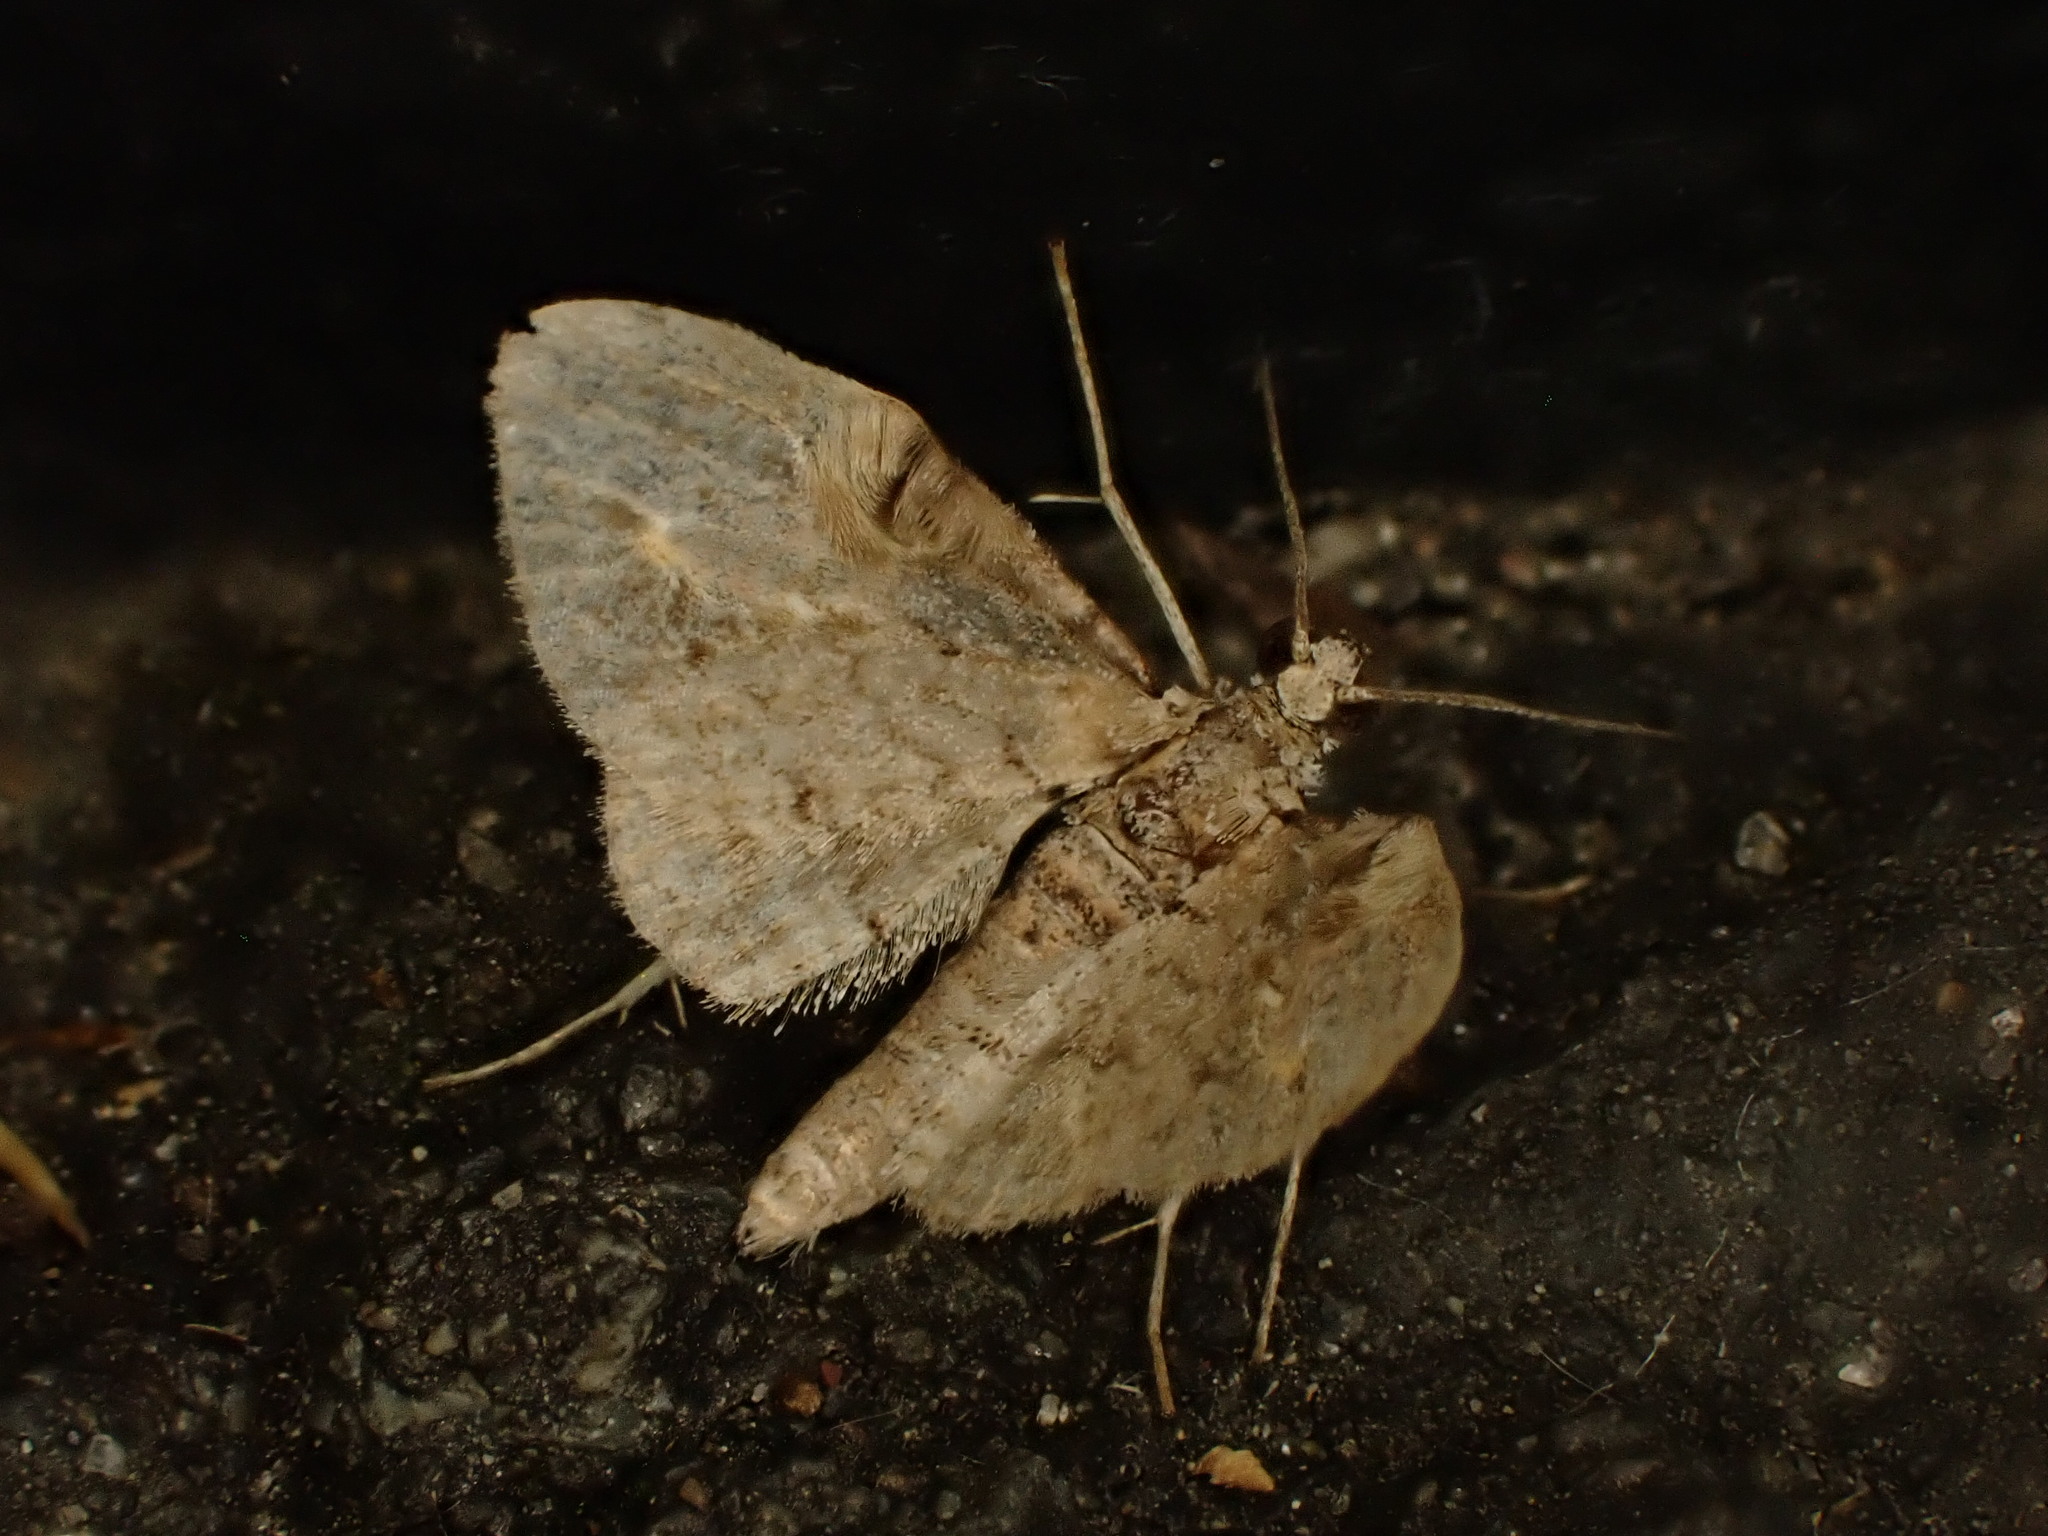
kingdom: Animalia
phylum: Arthropoda
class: Insecta
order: Lepidoptera
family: Geometridae
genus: Chloroclystis
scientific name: Chloroclystis insigillata
